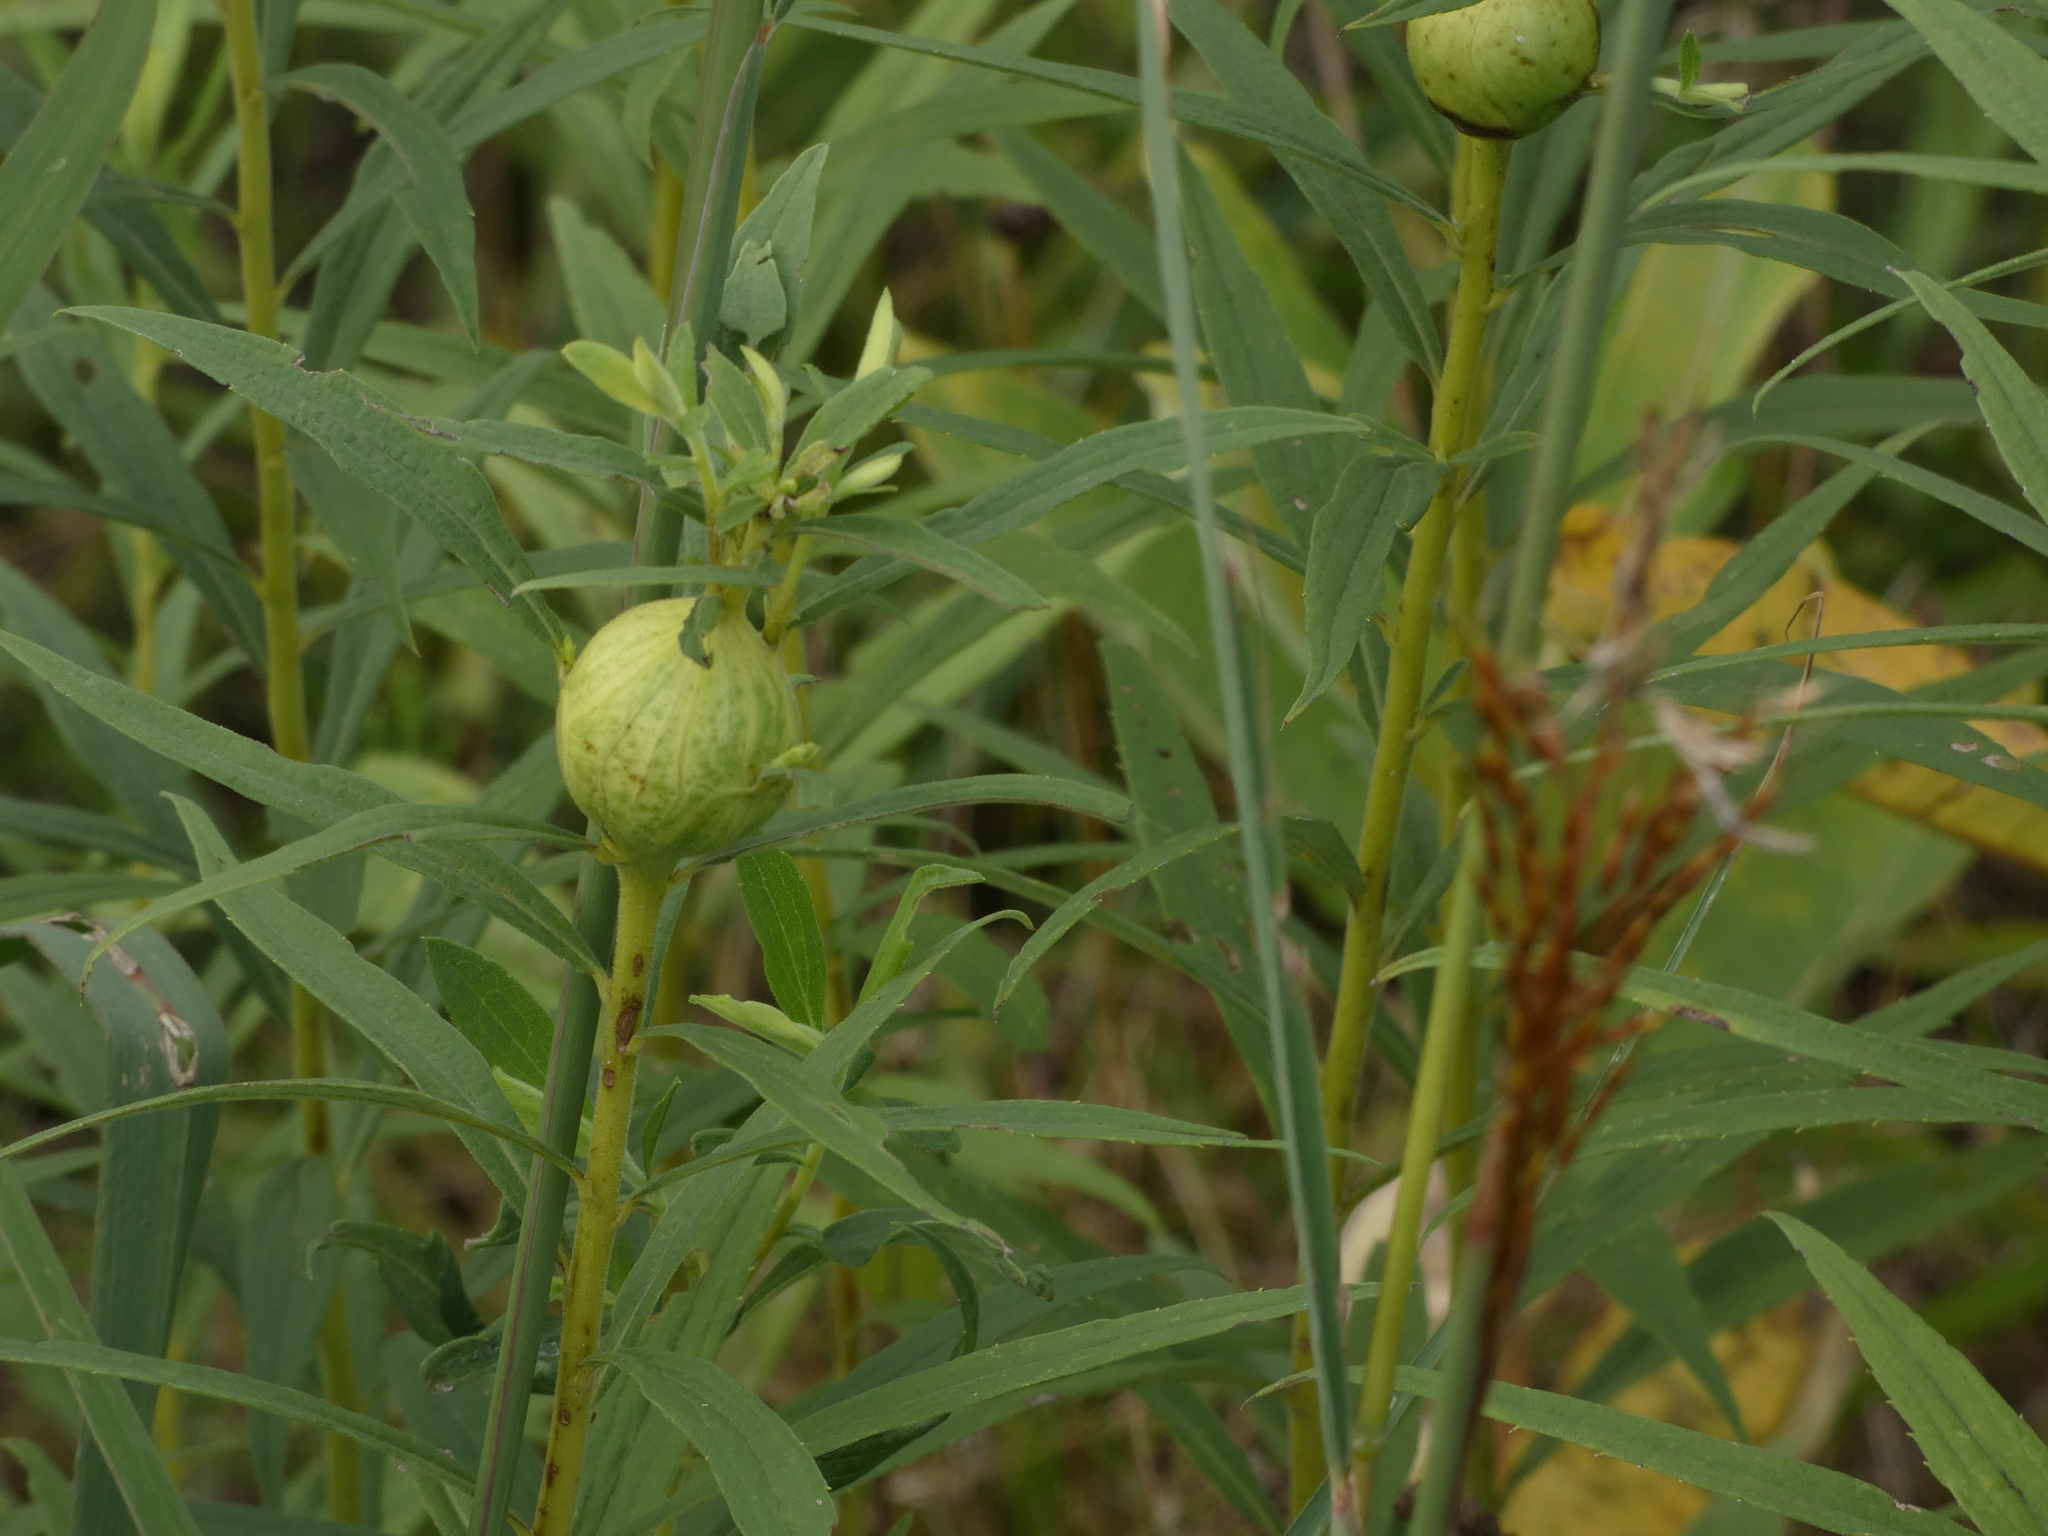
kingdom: Animalia
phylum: Arthropoda
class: Insecta
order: Diptera
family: Tephritidae
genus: Eurosta
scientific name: Eurosta solidaginis
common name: Goldenrod gall fly
